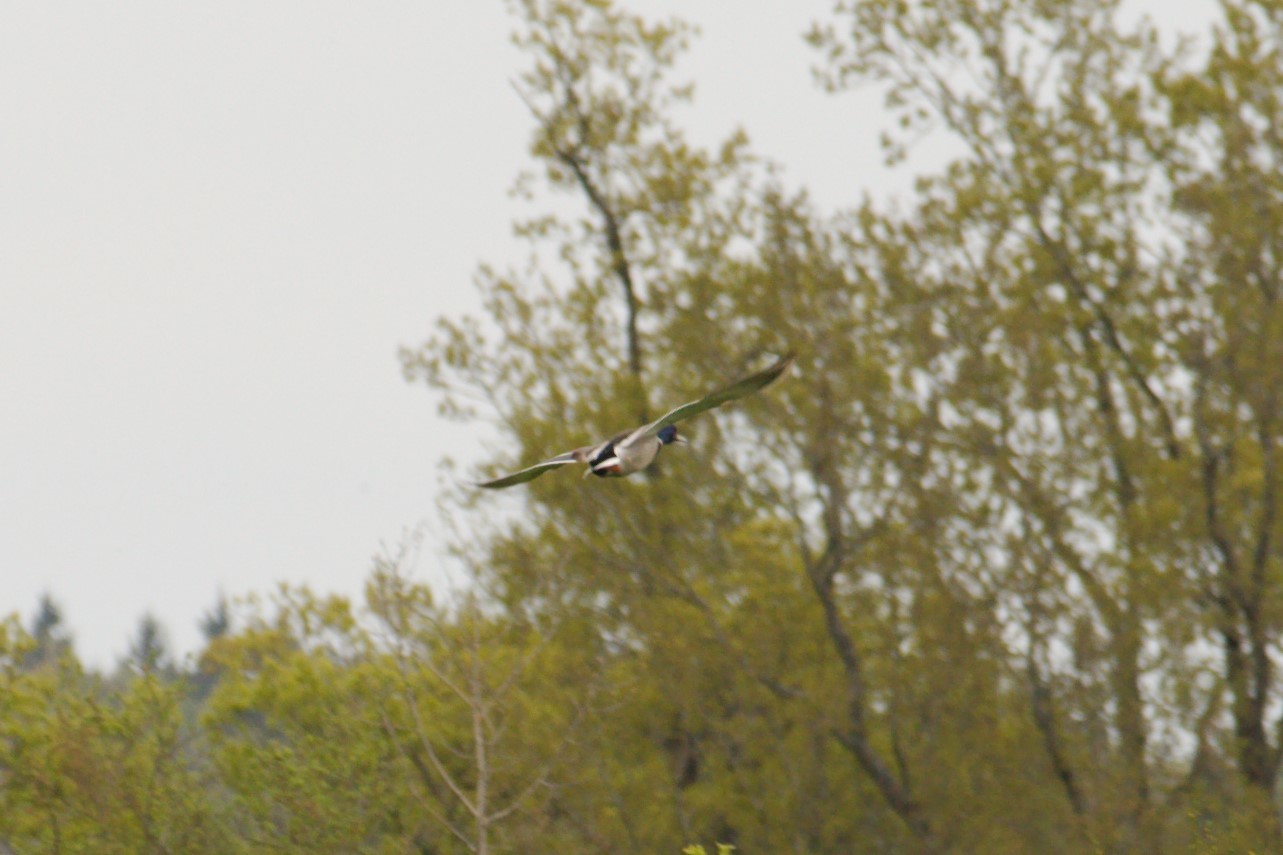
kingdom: Animalia
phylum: Chordata
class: Aves
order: Anseriformes
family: Anatidae
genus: Anas
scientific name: Anas platyrhynchos
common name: Mallard
